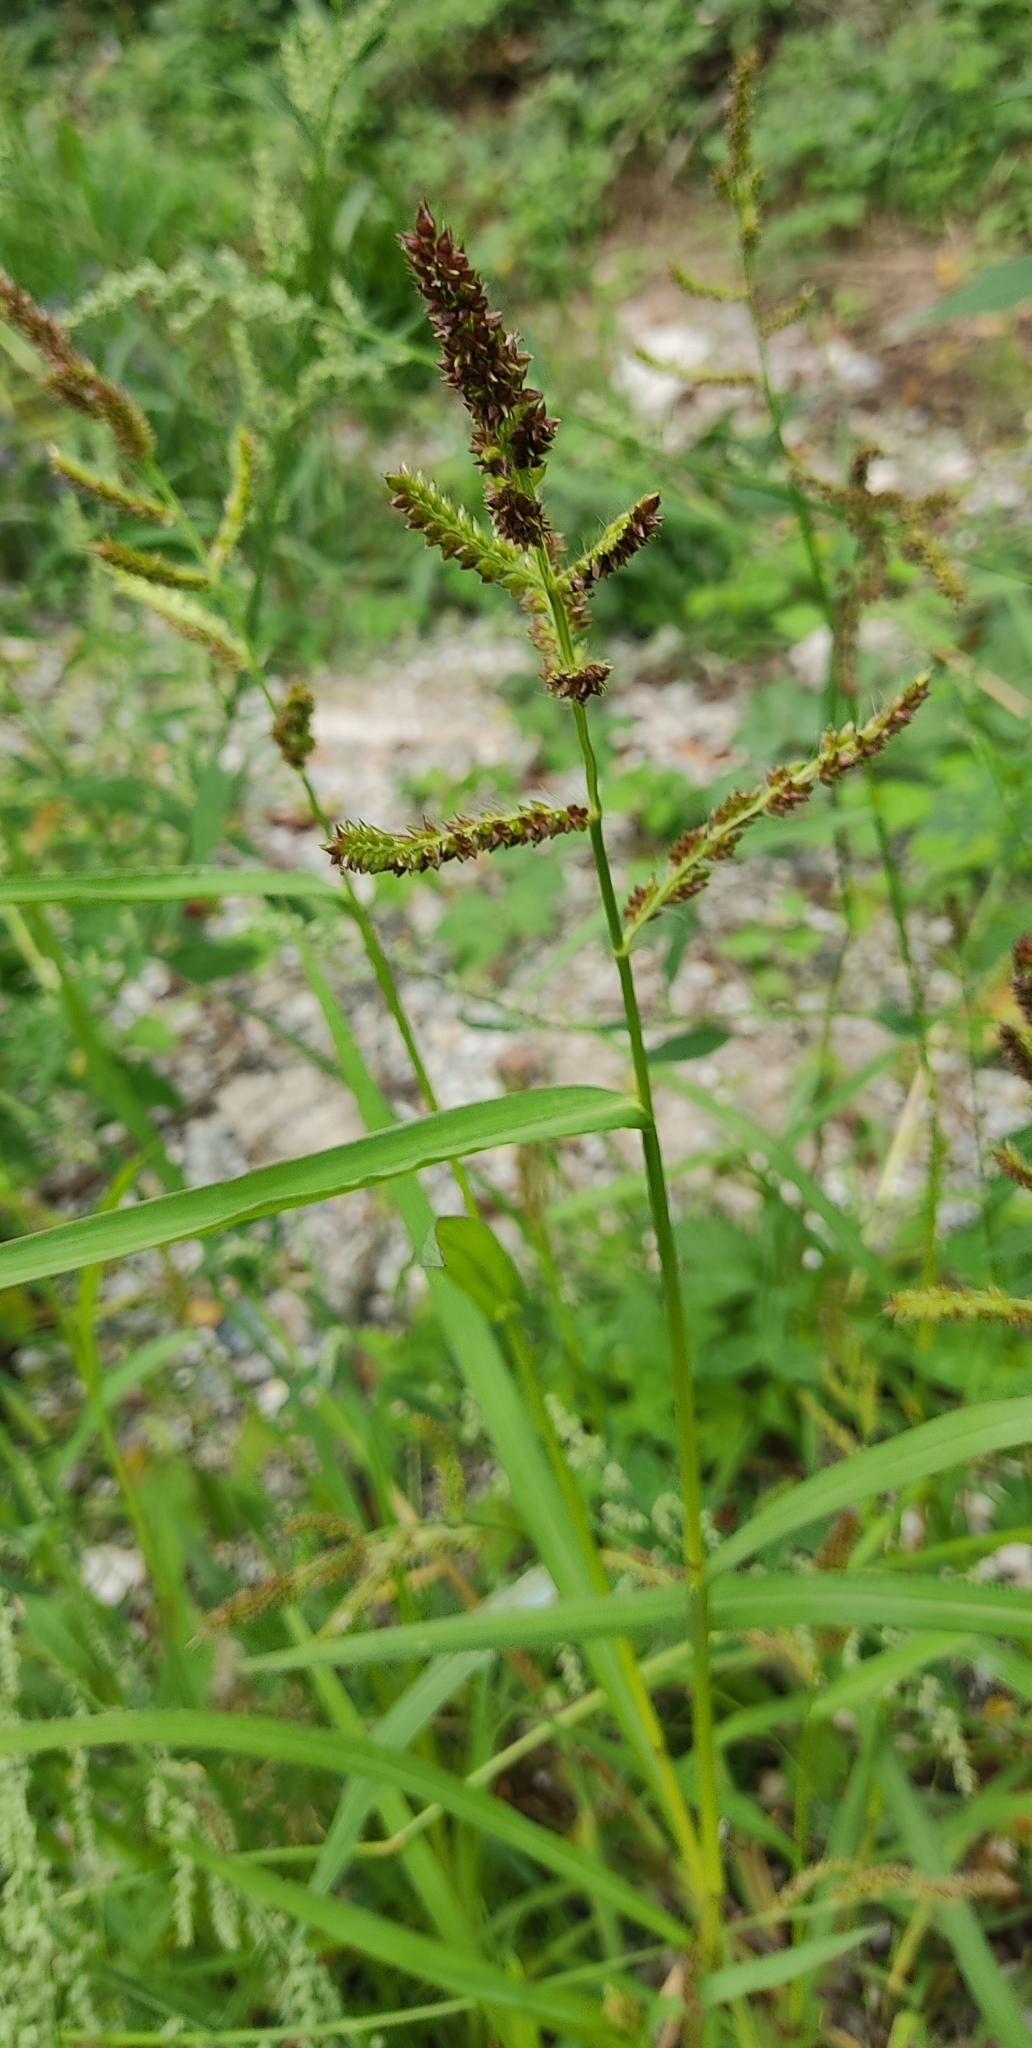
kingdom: Plantae
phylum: Tracheophyta
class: Liliopsida
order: Poales
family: Poaceae
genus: Echinochloa
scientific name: Echinochloa crus-galli
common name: Cockspur
